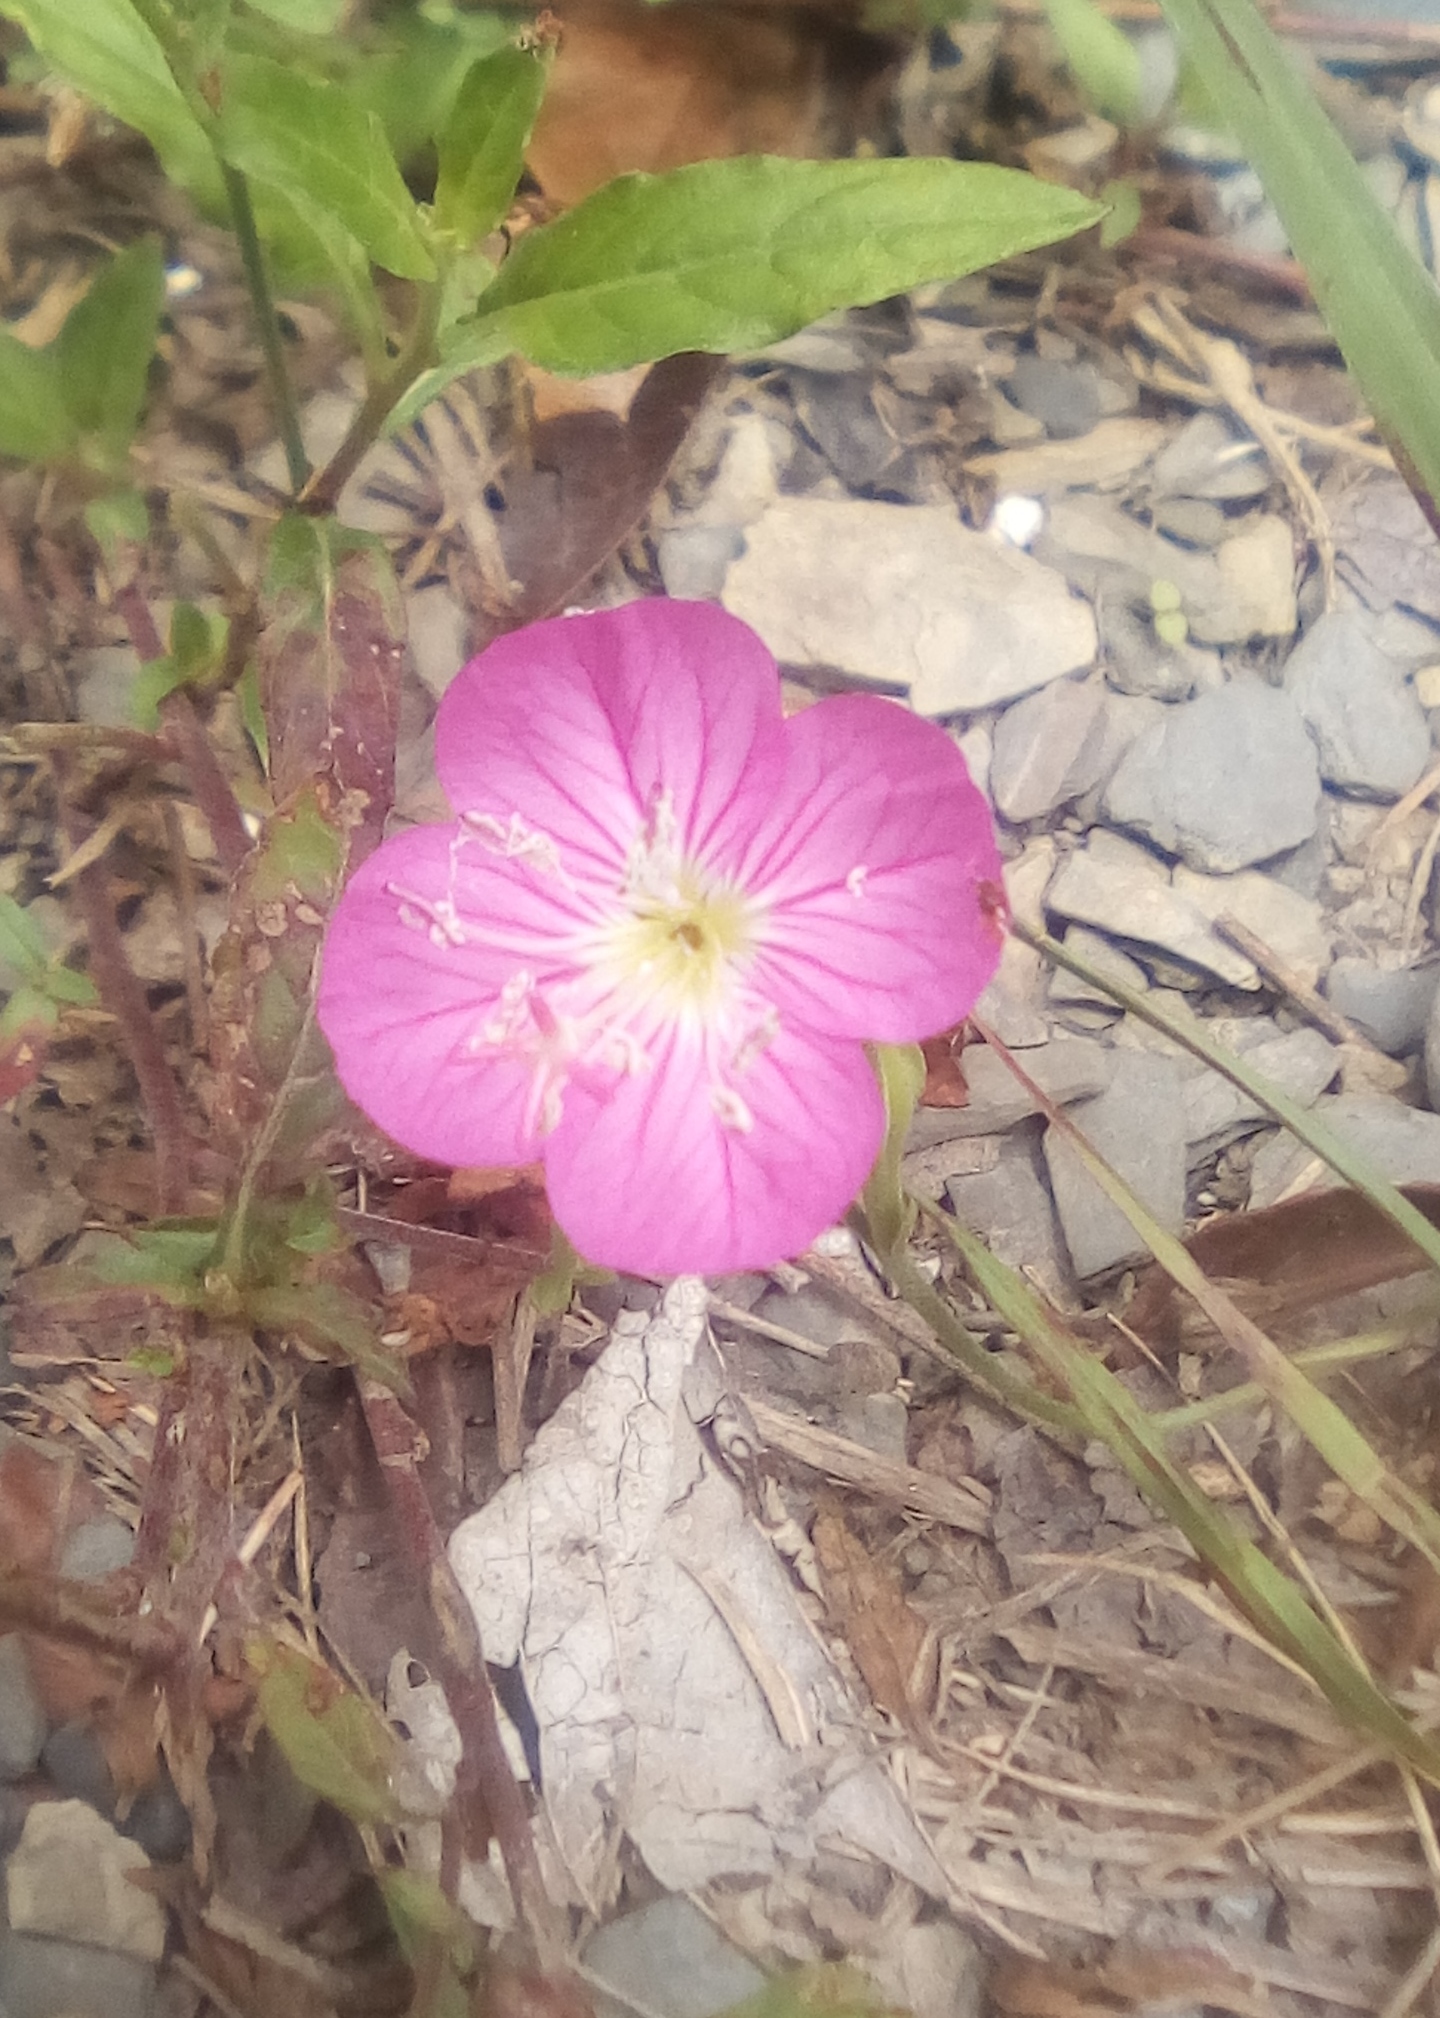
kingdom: Plantae
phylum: Tracheophyta
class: Magnoliopsida
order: Myrtales
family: Onagraceae
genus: Oenothera
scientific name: Oenothera rosea
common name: Rosy evening-primrose
